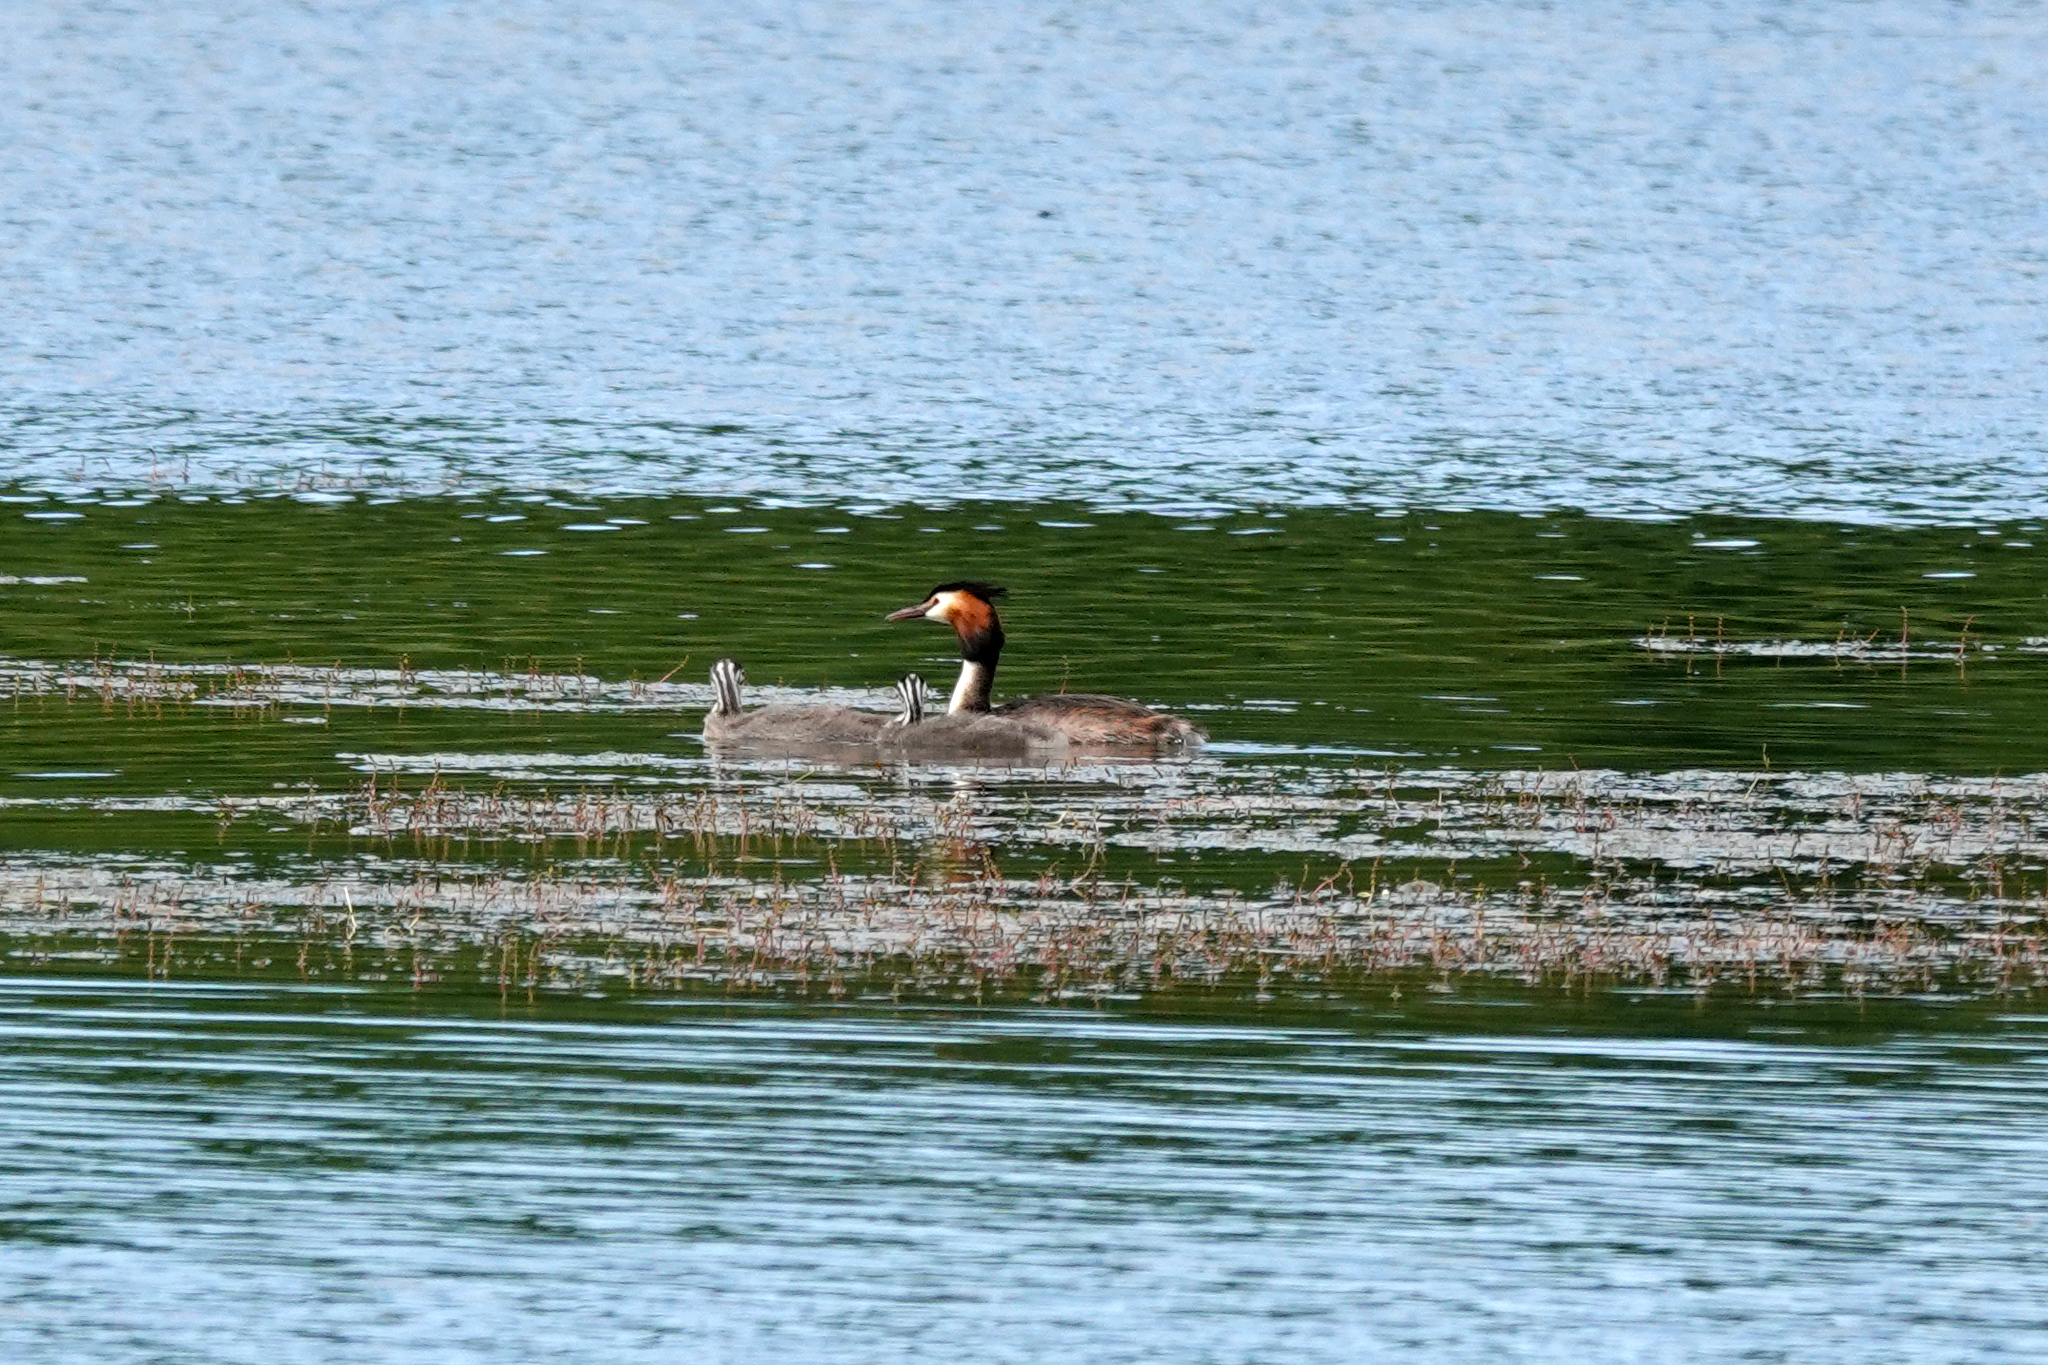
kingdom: Animalia
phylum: Chordata
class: Aves
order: Podicipediformes
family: Podicipedidae
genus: Podiceps
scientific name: Podiceps cristatus
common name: Great crested grebe
